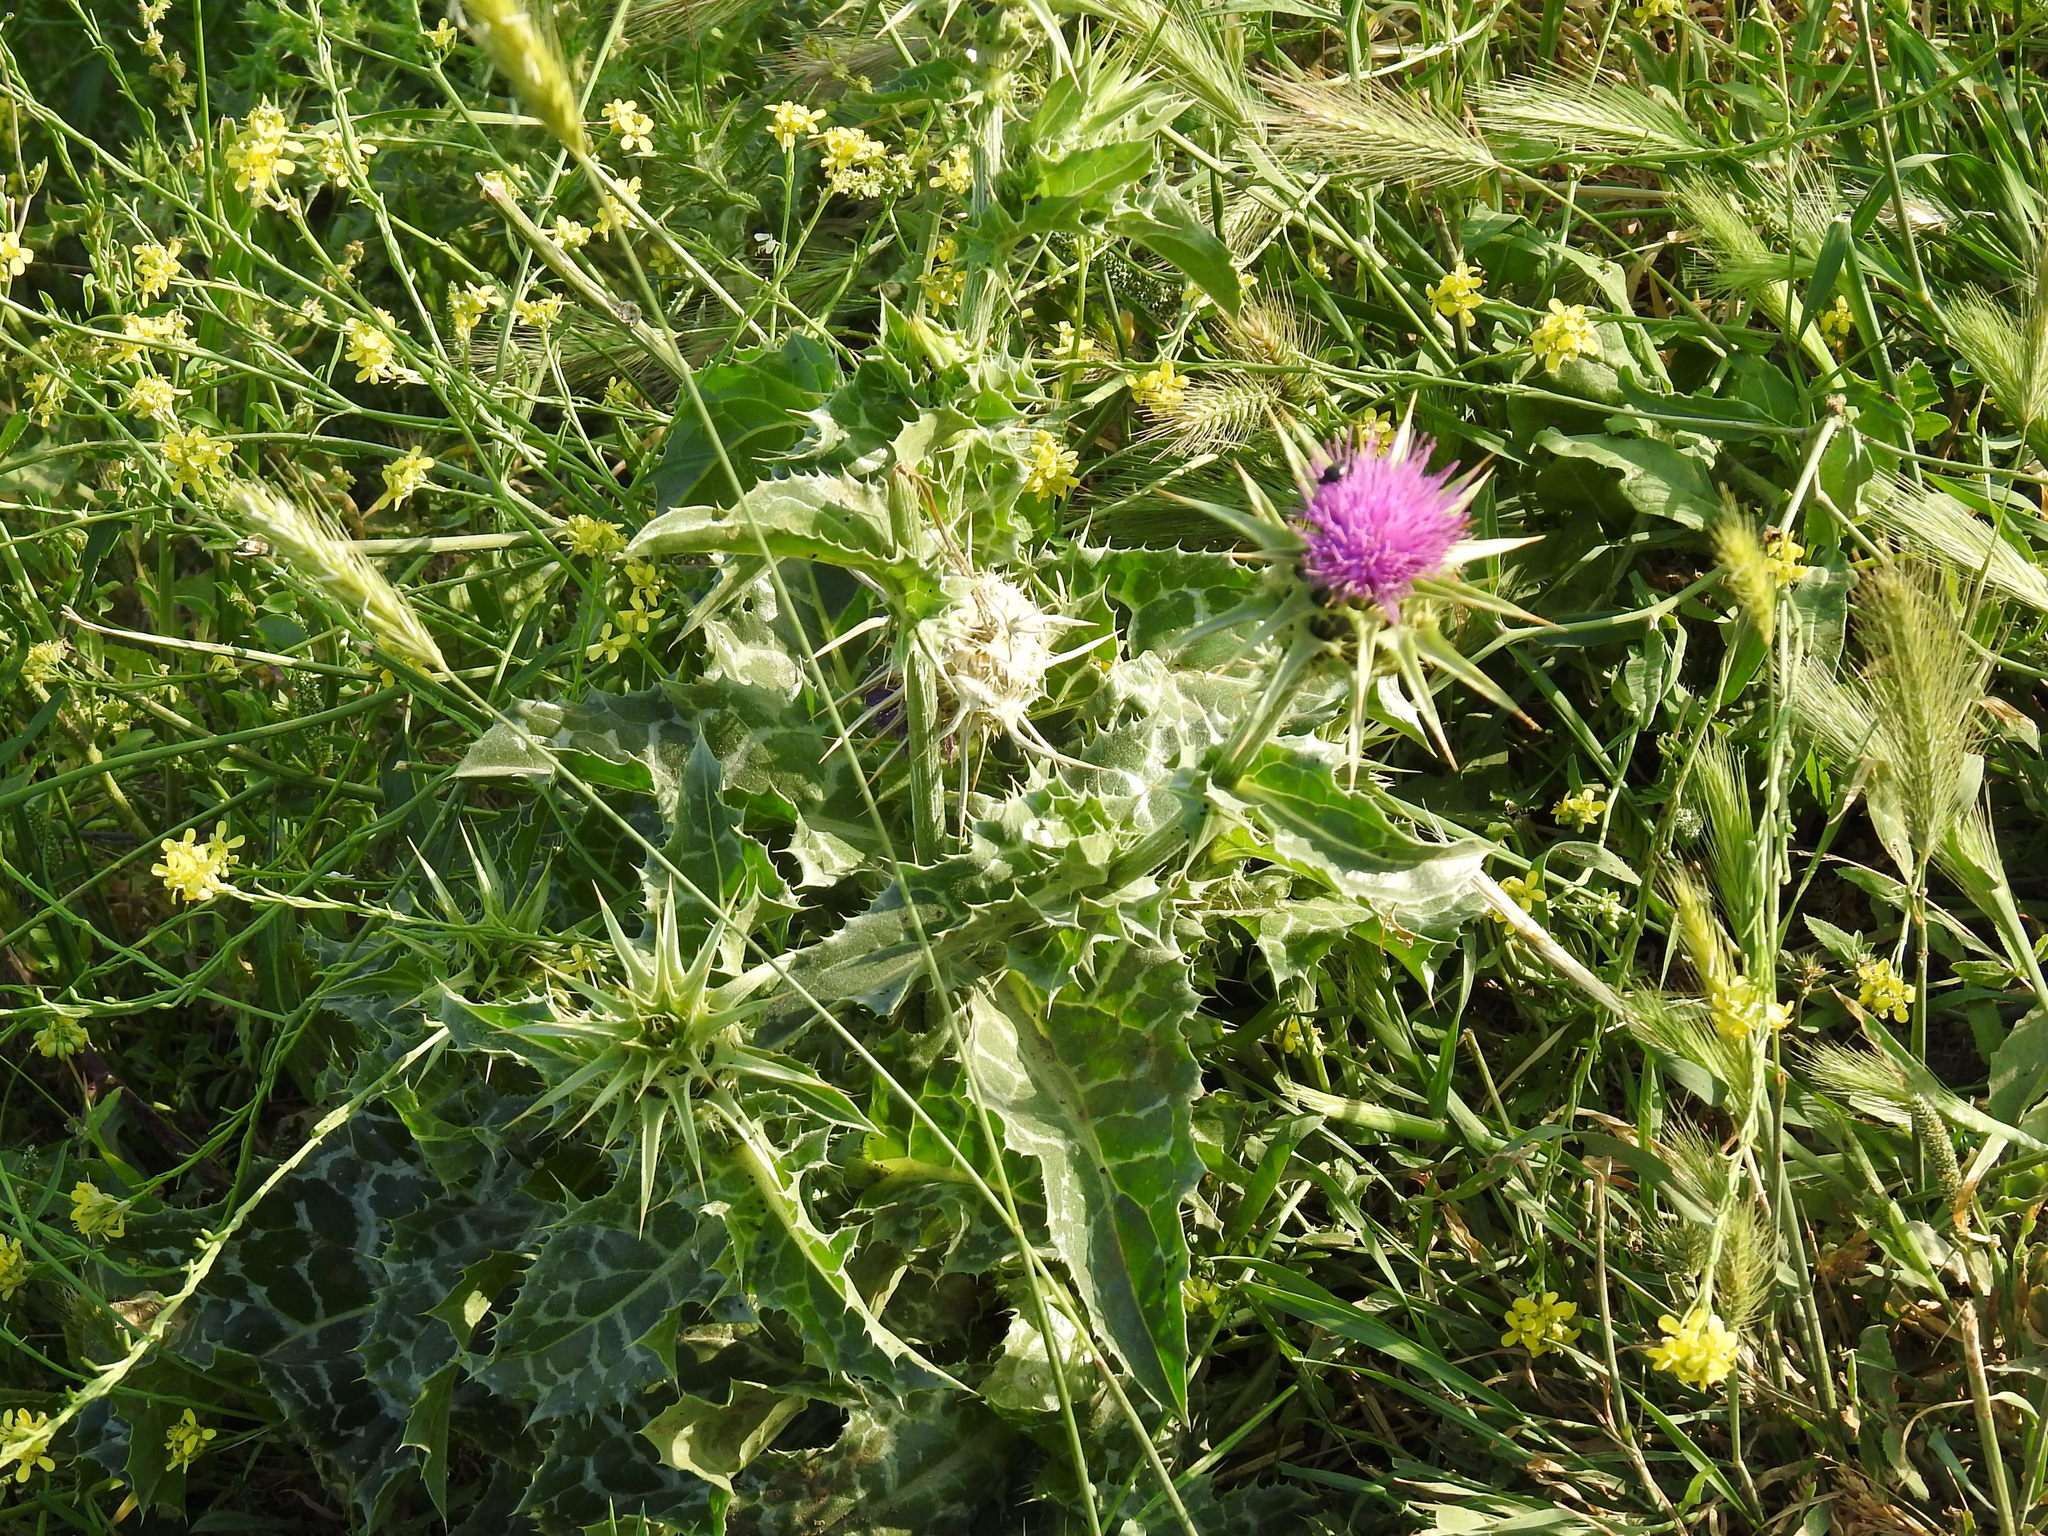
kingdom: Plantae
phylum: Tracheophyta
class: Magnoliopsida
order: Asterales
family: Asteraceae
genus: Silybum
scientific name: Silybum marianum
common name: Milk thistle
